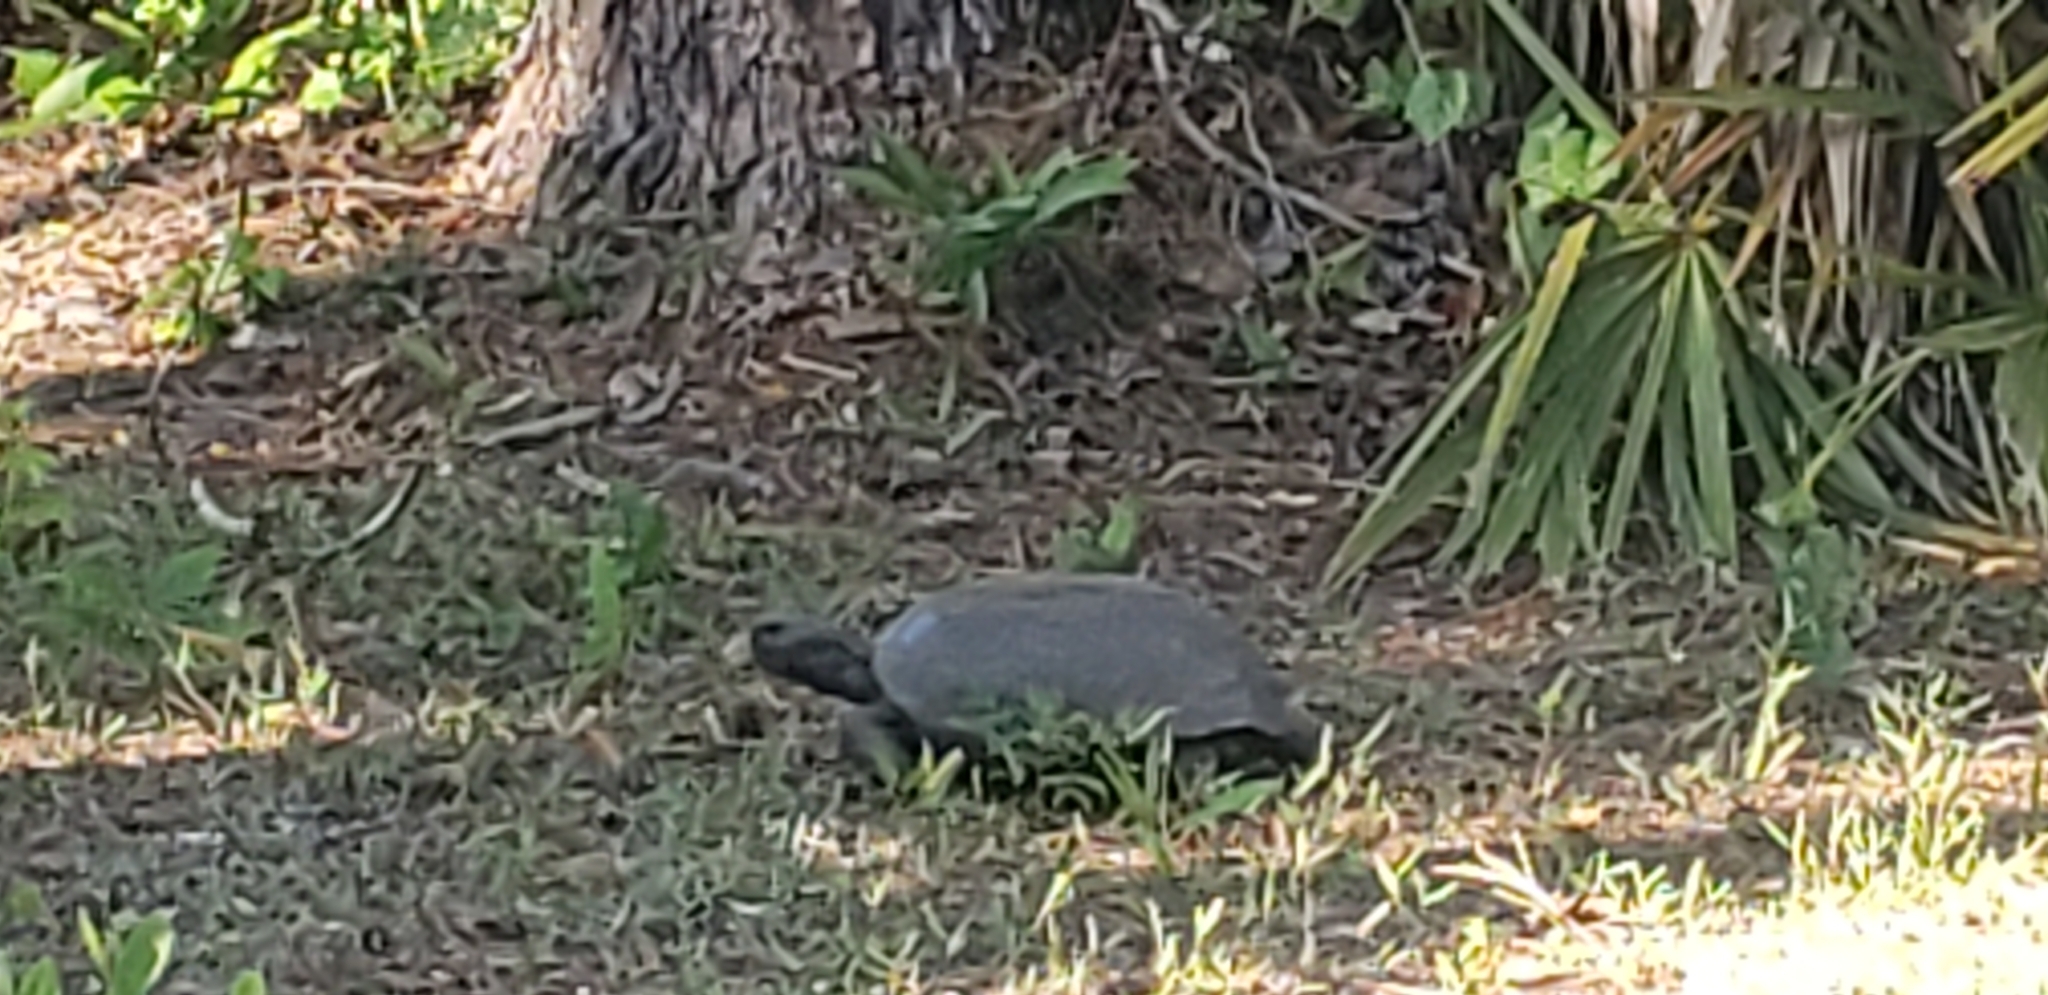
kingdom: Animalia
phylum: Chordata
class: Testudines
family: Testudinidae
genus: Gopherus
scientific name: Gopherus polyphemus
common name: Florida gopher tortoise
